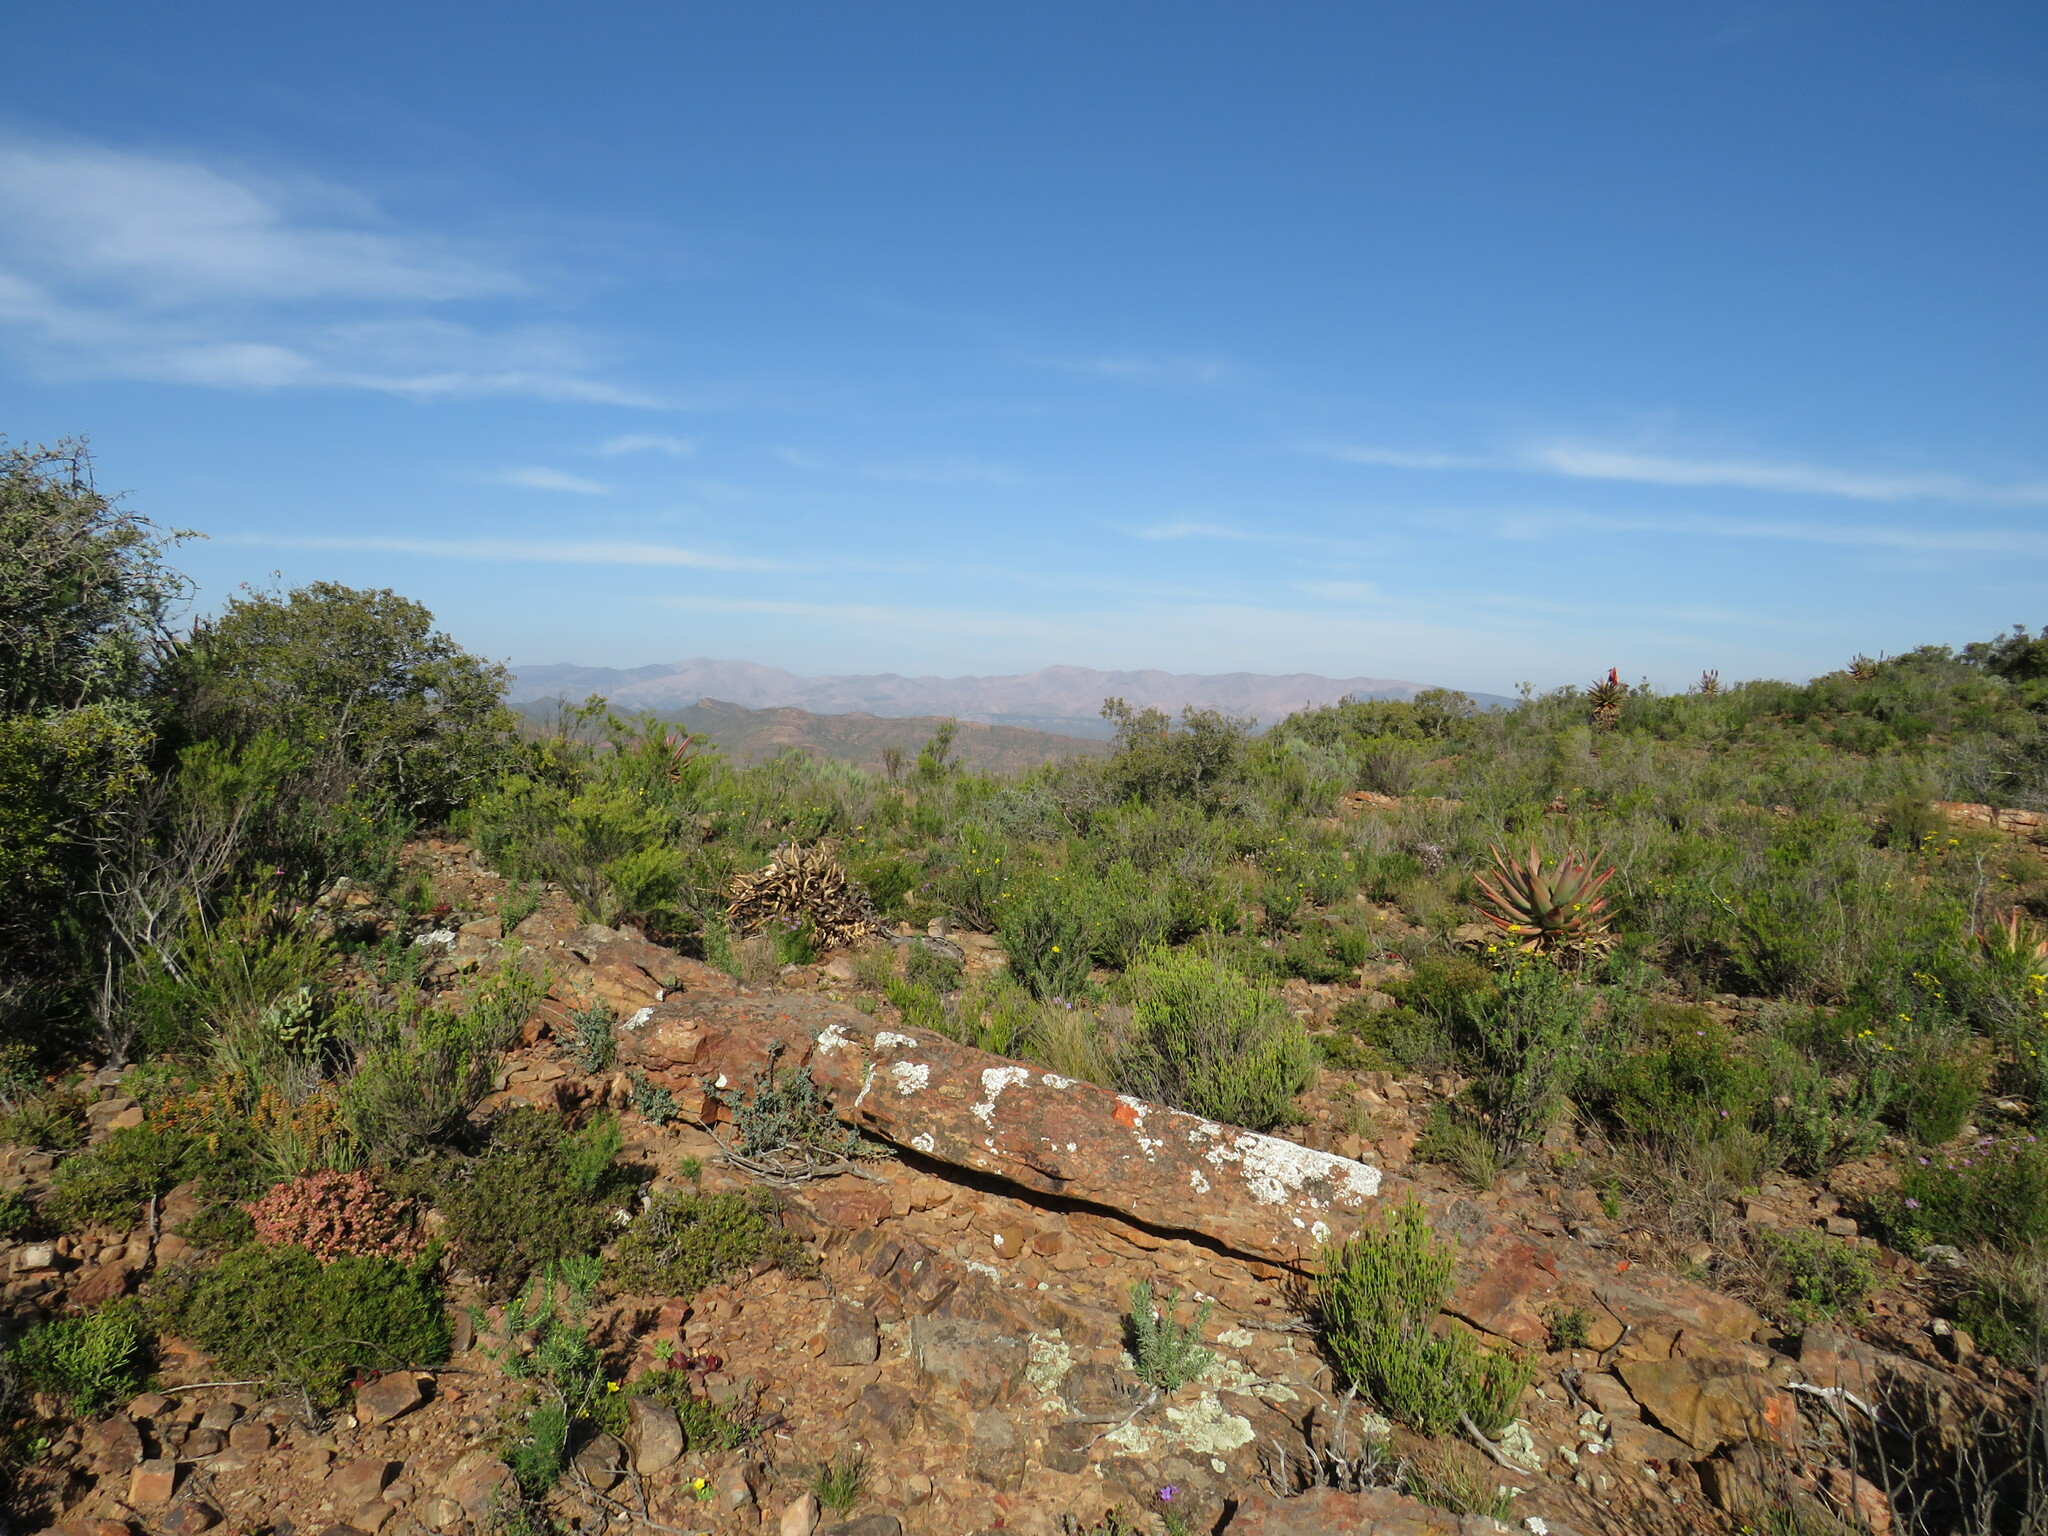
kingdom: Plantae
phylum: Tracheophyta
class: Magnoliopsida
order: Oxalidales
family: Oxalidaceae
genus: Oxalis
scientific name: Oxalis fergusoniae
